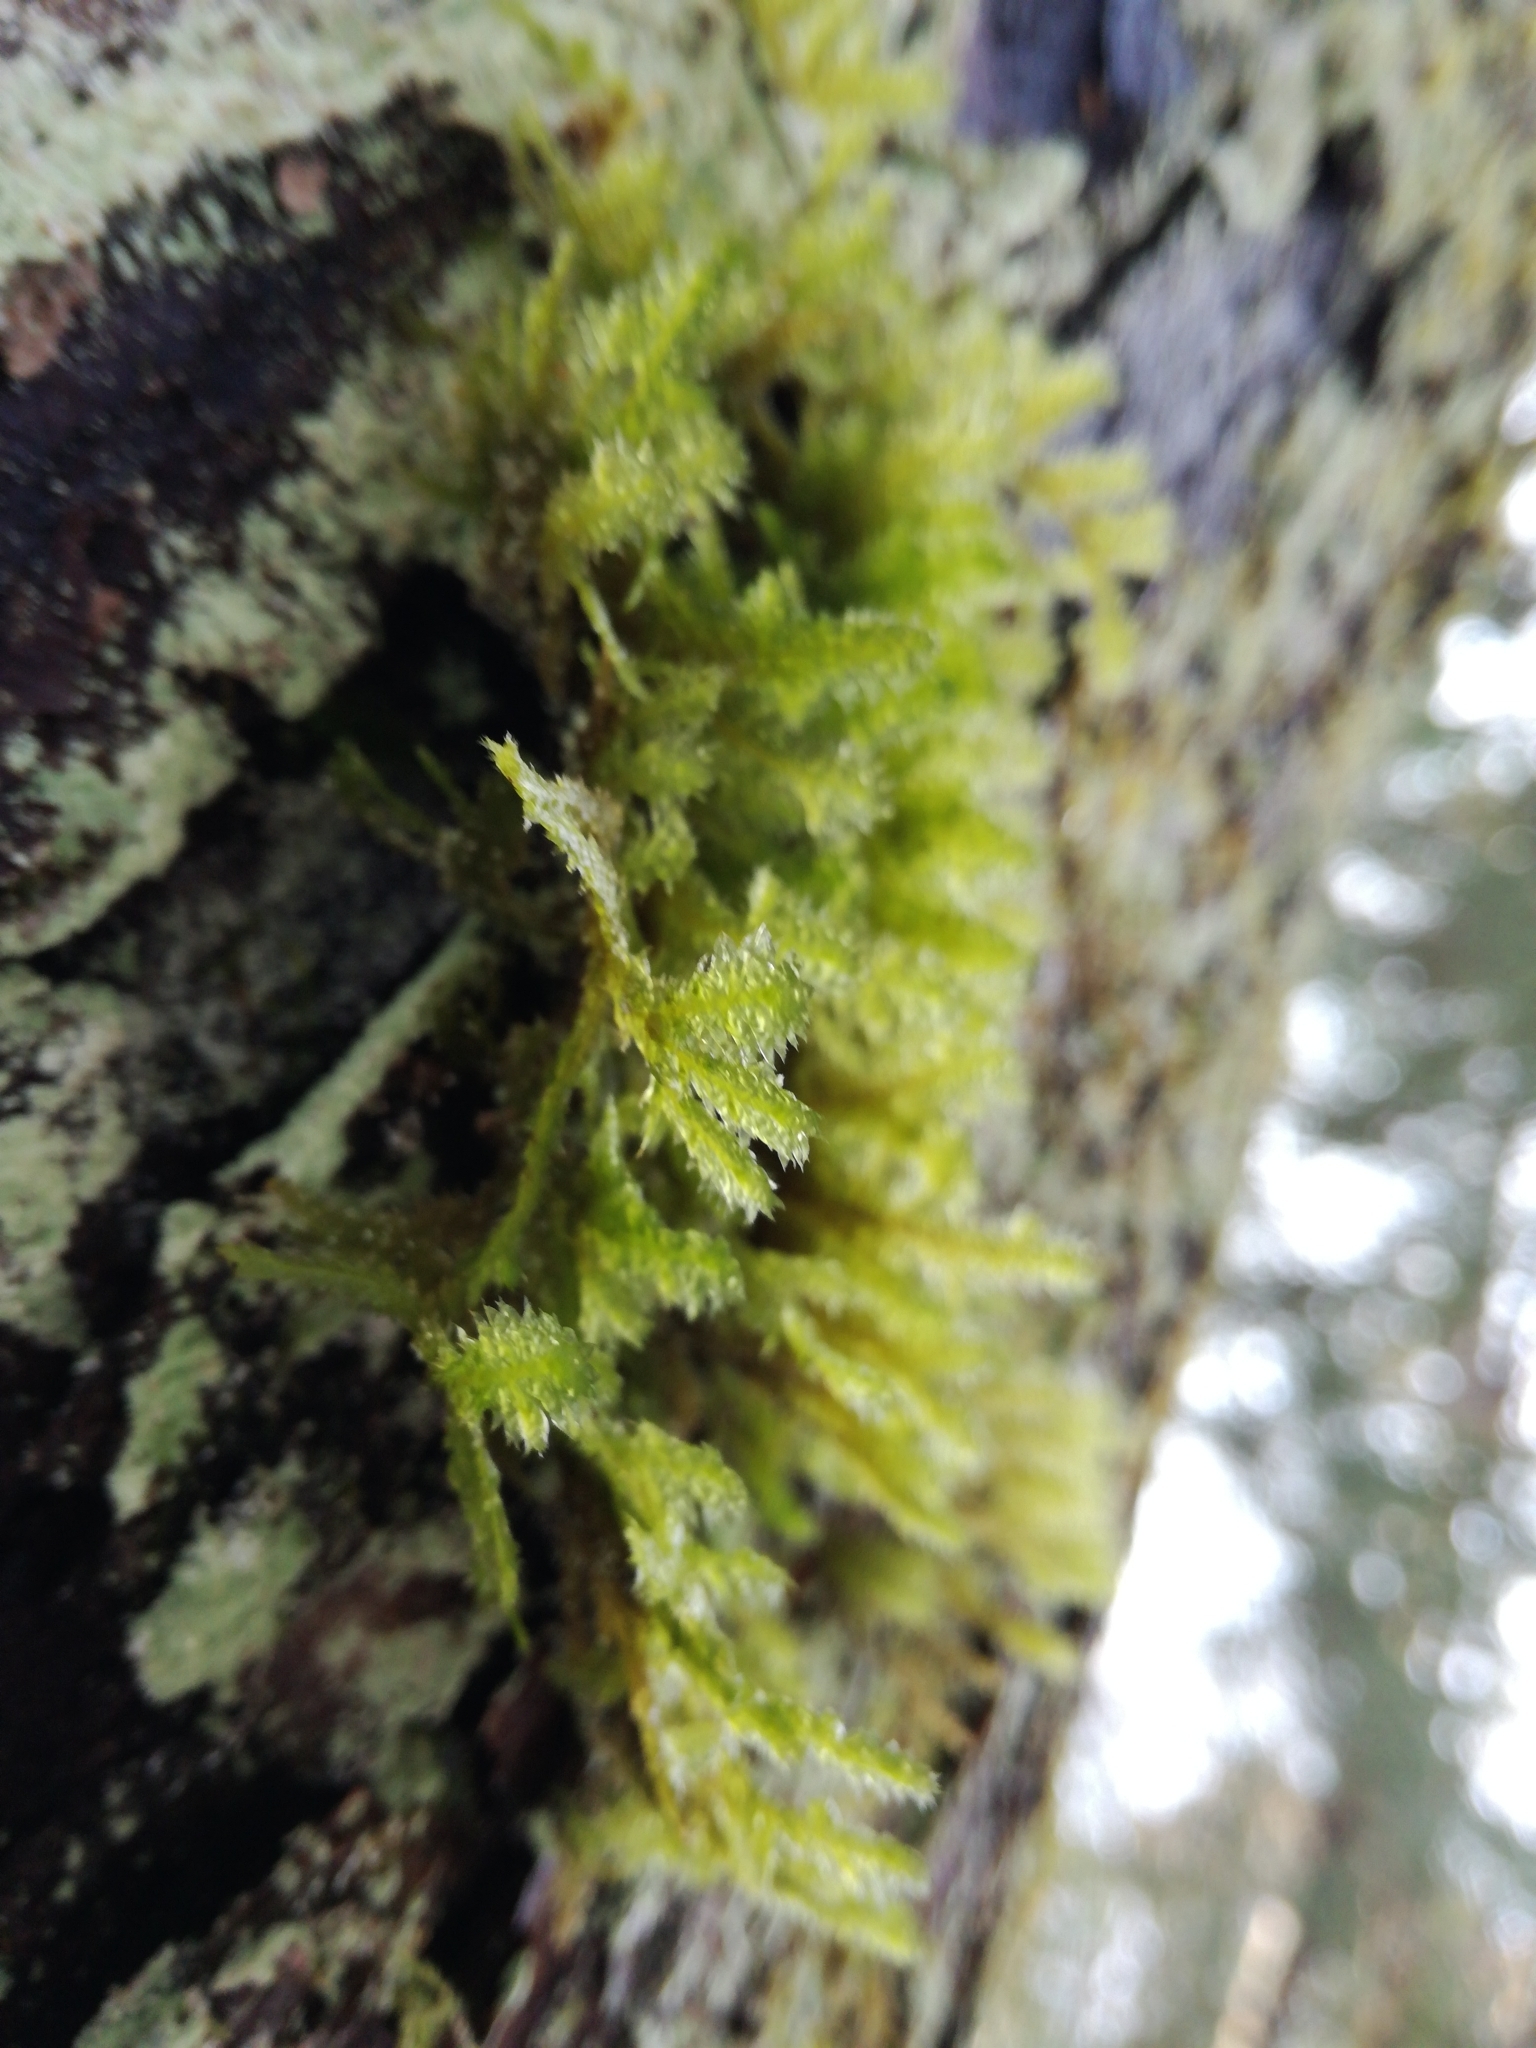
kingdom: Plantae
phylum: Bryophyta
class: Bryopsida
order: Hypnales
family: Neckeraceae
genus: Neckera
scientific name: Neckera pennata
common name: Feathery neckera
